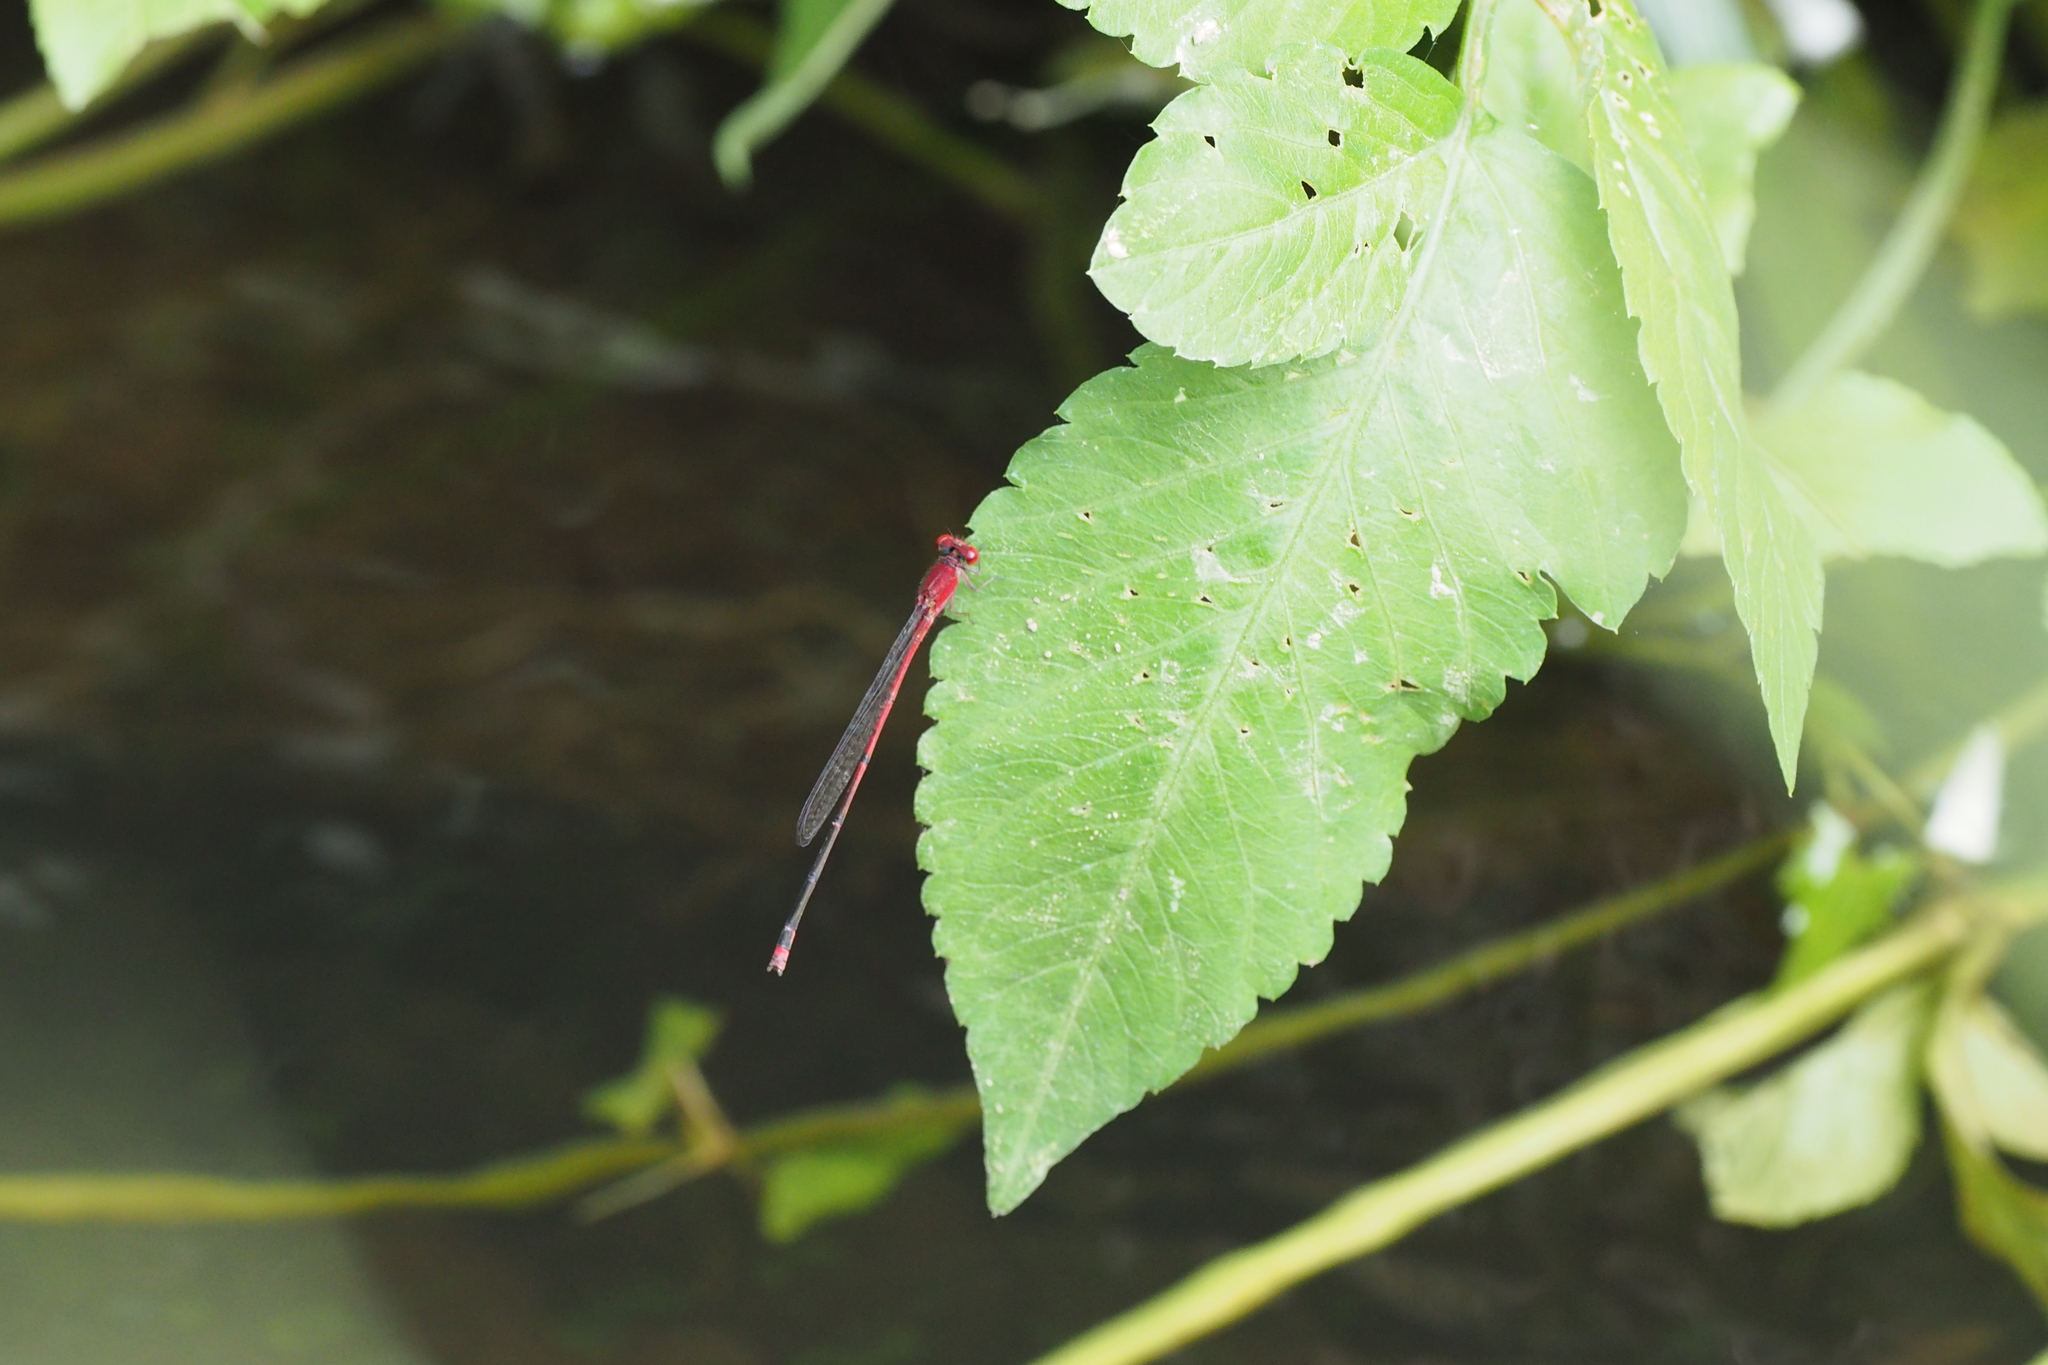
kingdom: Animalia
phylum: Arthropoda
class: Insecta
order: Odonata
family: Coenagrionidae
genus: Pseudagrion
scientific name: Pseudagrion pilidorsum
